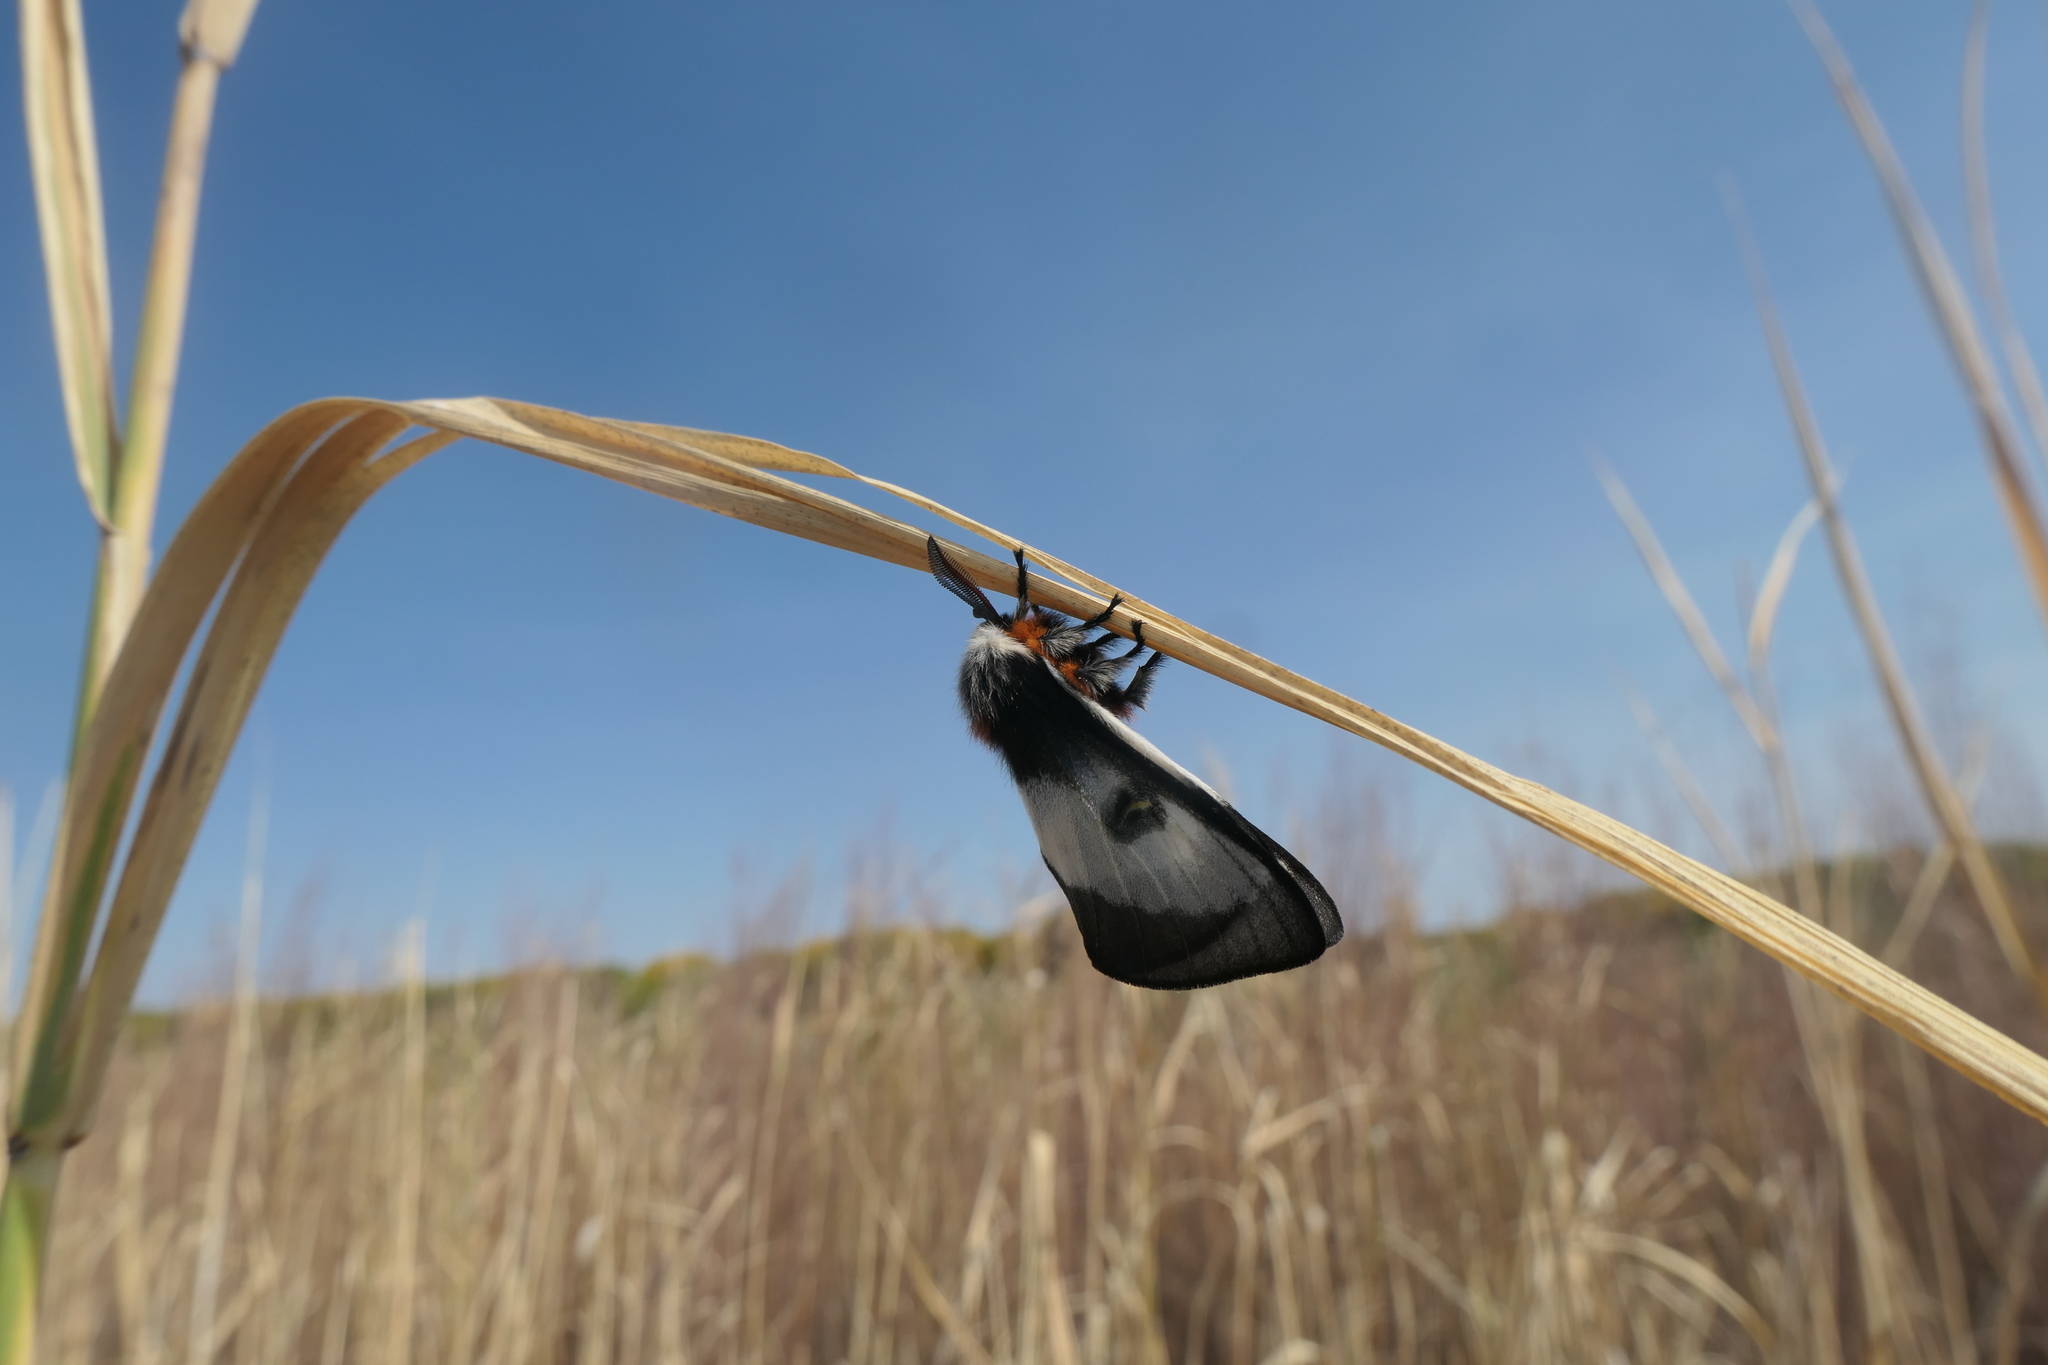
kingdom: Animalia
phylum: Arthropoda
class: Insecta
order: Lepidoptera
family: Saturniidae
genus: Hemileuca
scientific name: Hemileuca nevadensis
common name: Nevada buckmoth
